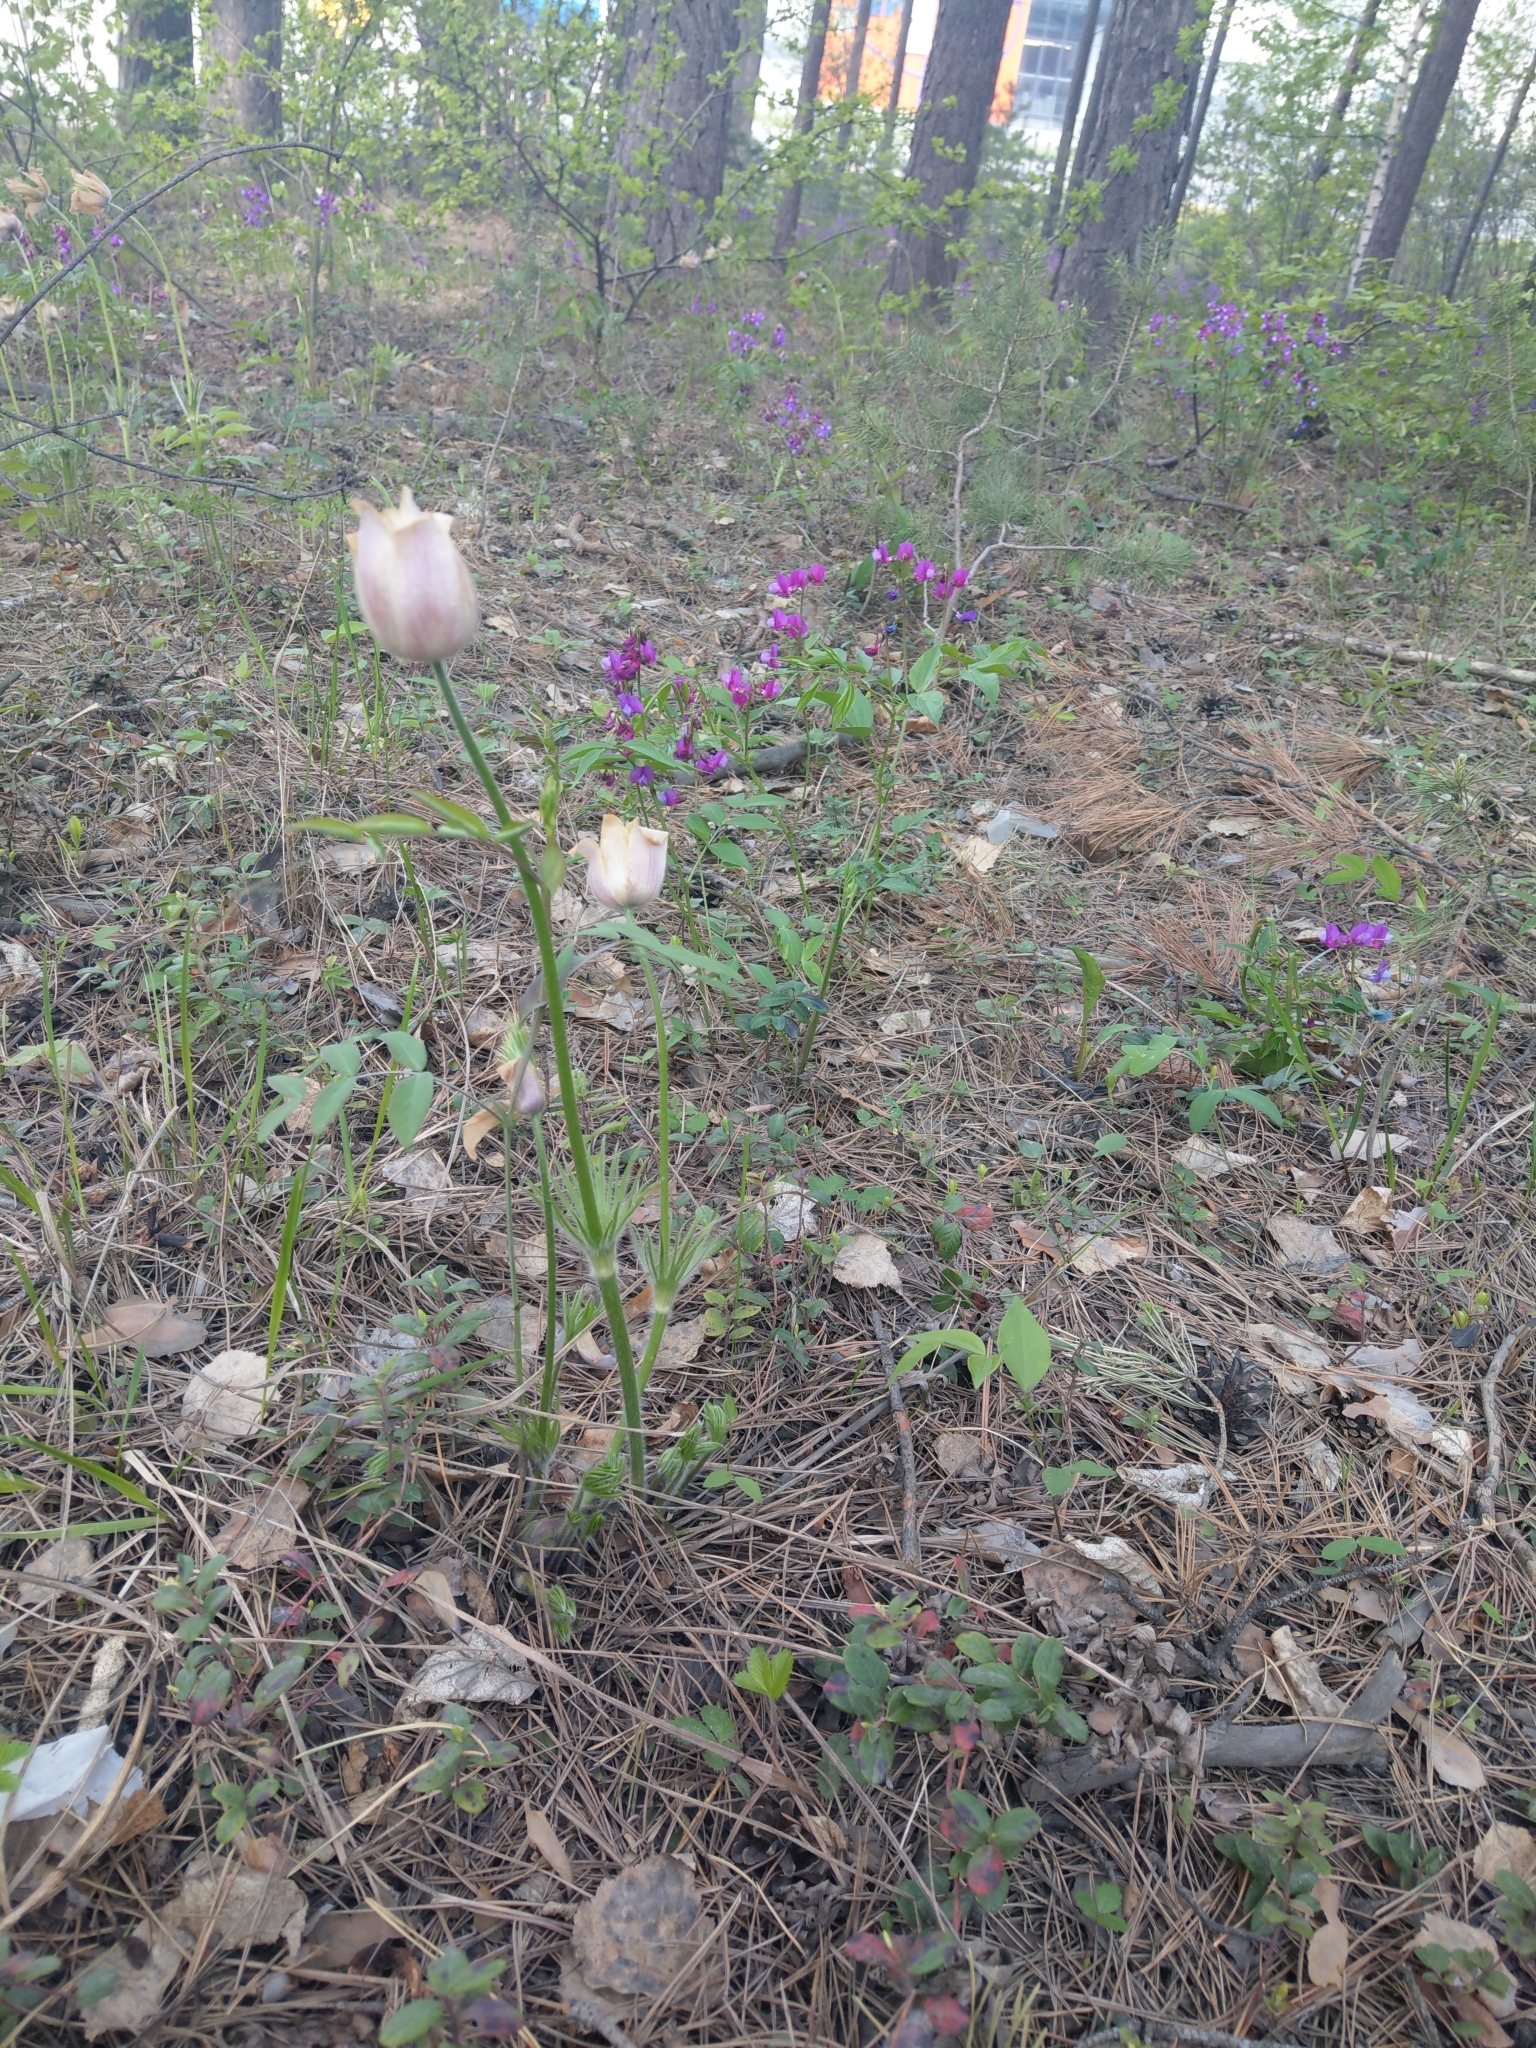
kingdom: Plantae
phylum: Tracheophyta
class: Magnoliopsida
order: Ranunculales
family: Ranunculaceae
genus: Pulsatilla
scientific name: Pulsatilla patens
